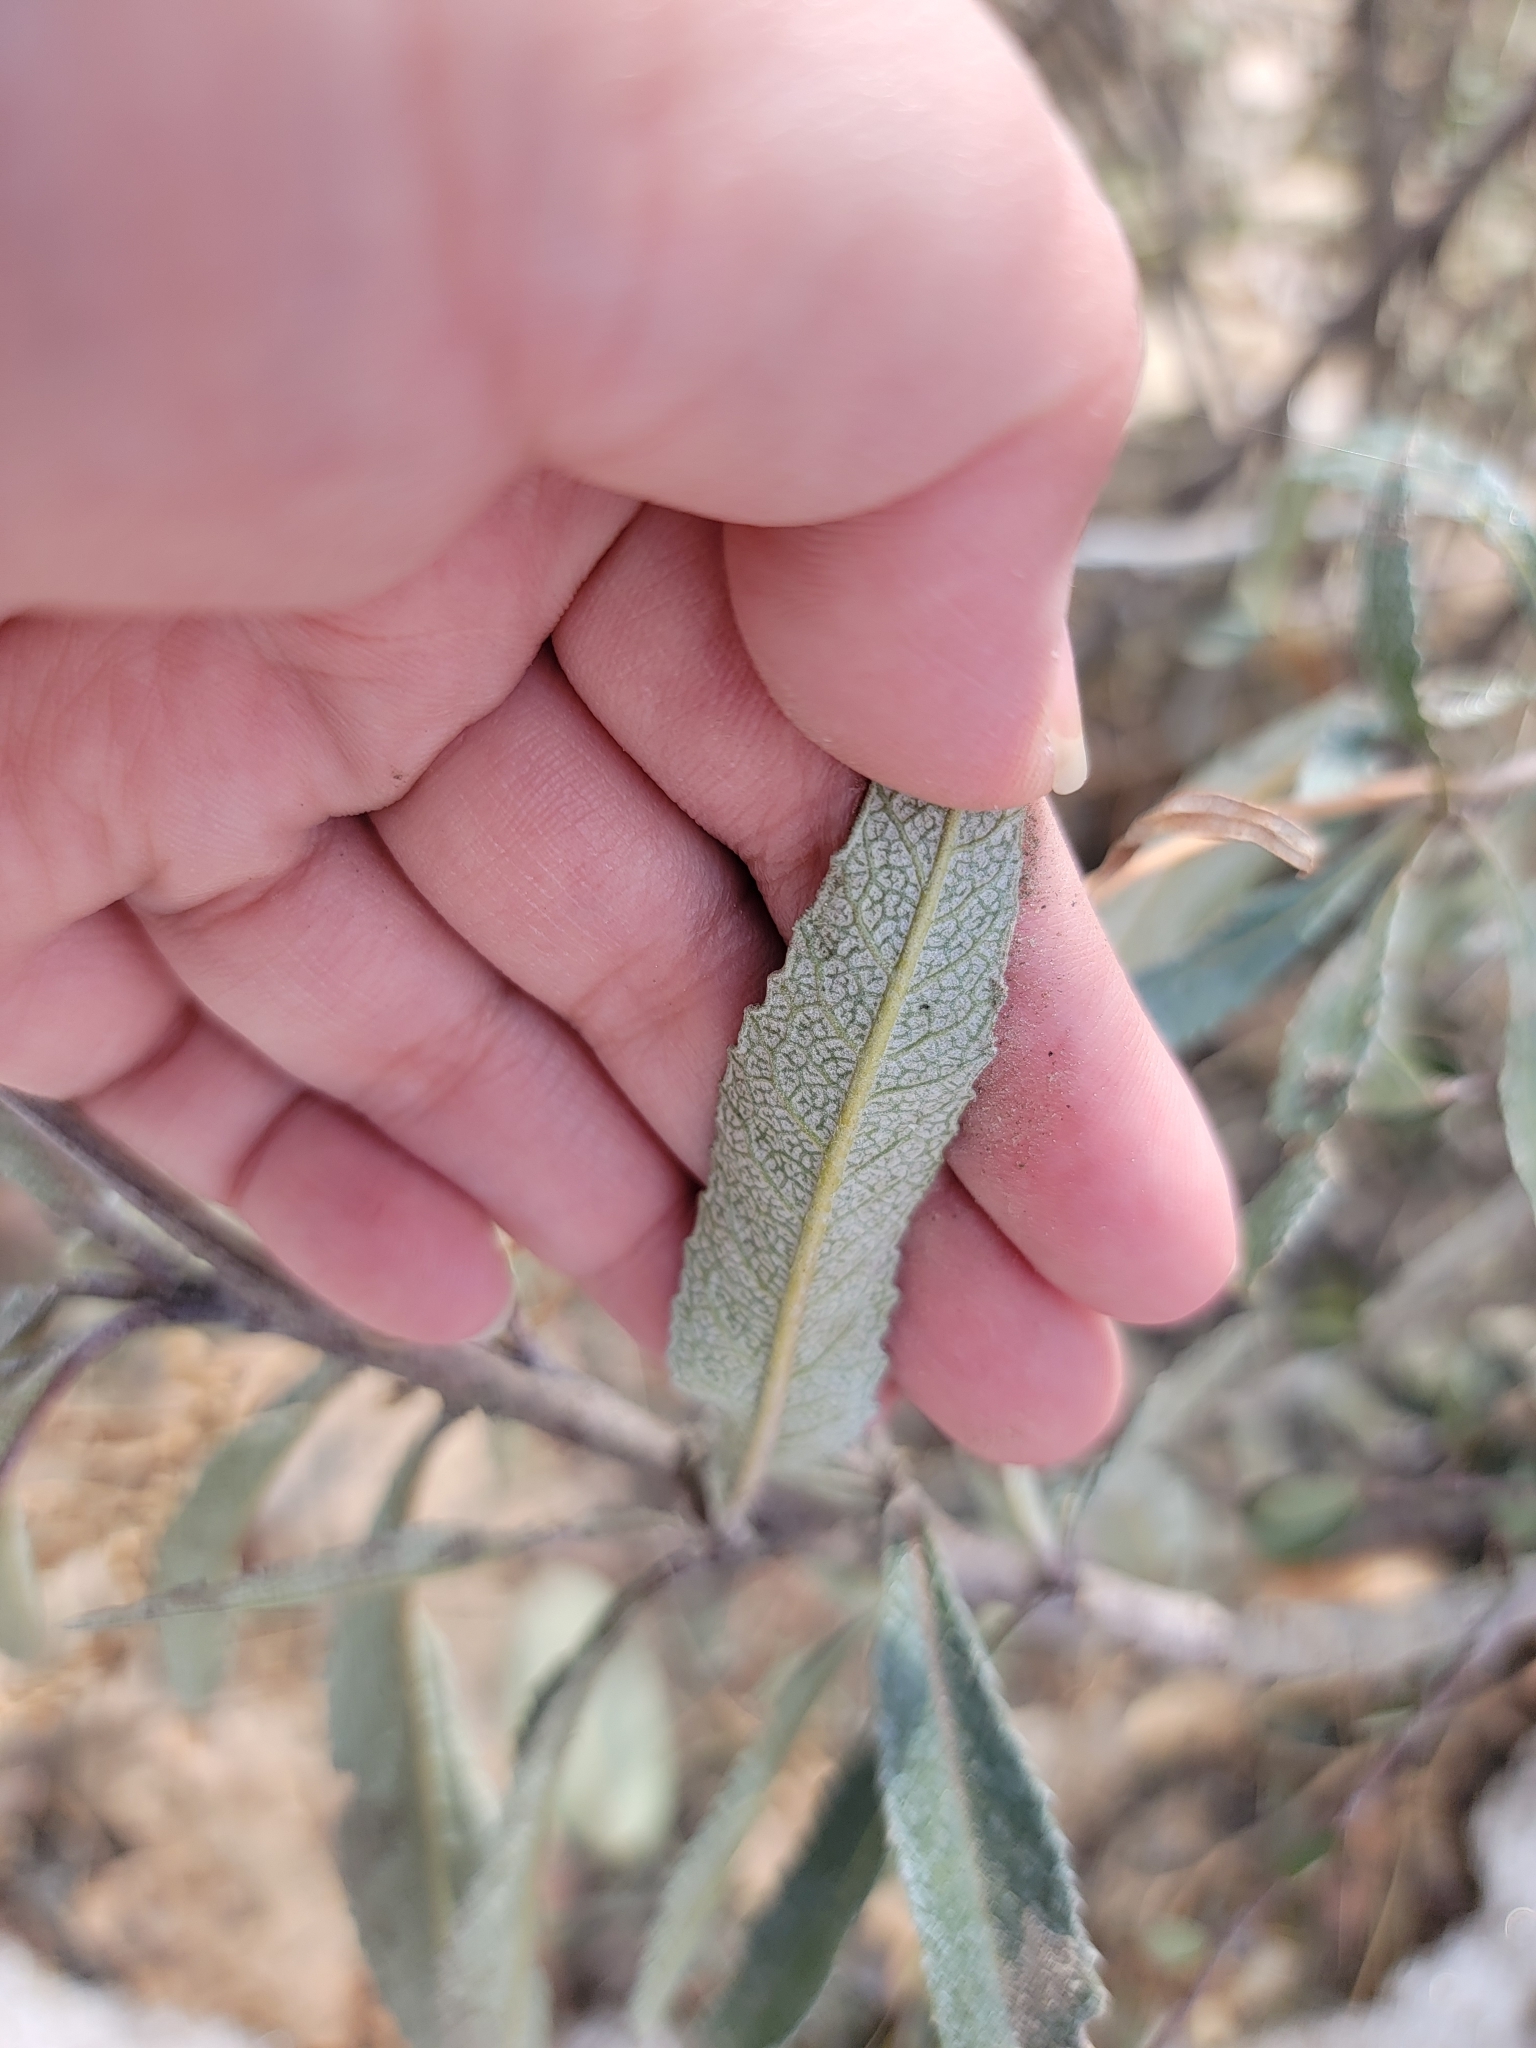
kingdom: Plantae
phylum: Tracheophyta
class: Magnoliopsida
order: Boraginales
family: Namaceae
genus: Eriodictyon
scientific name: Eriodictyon californicum
